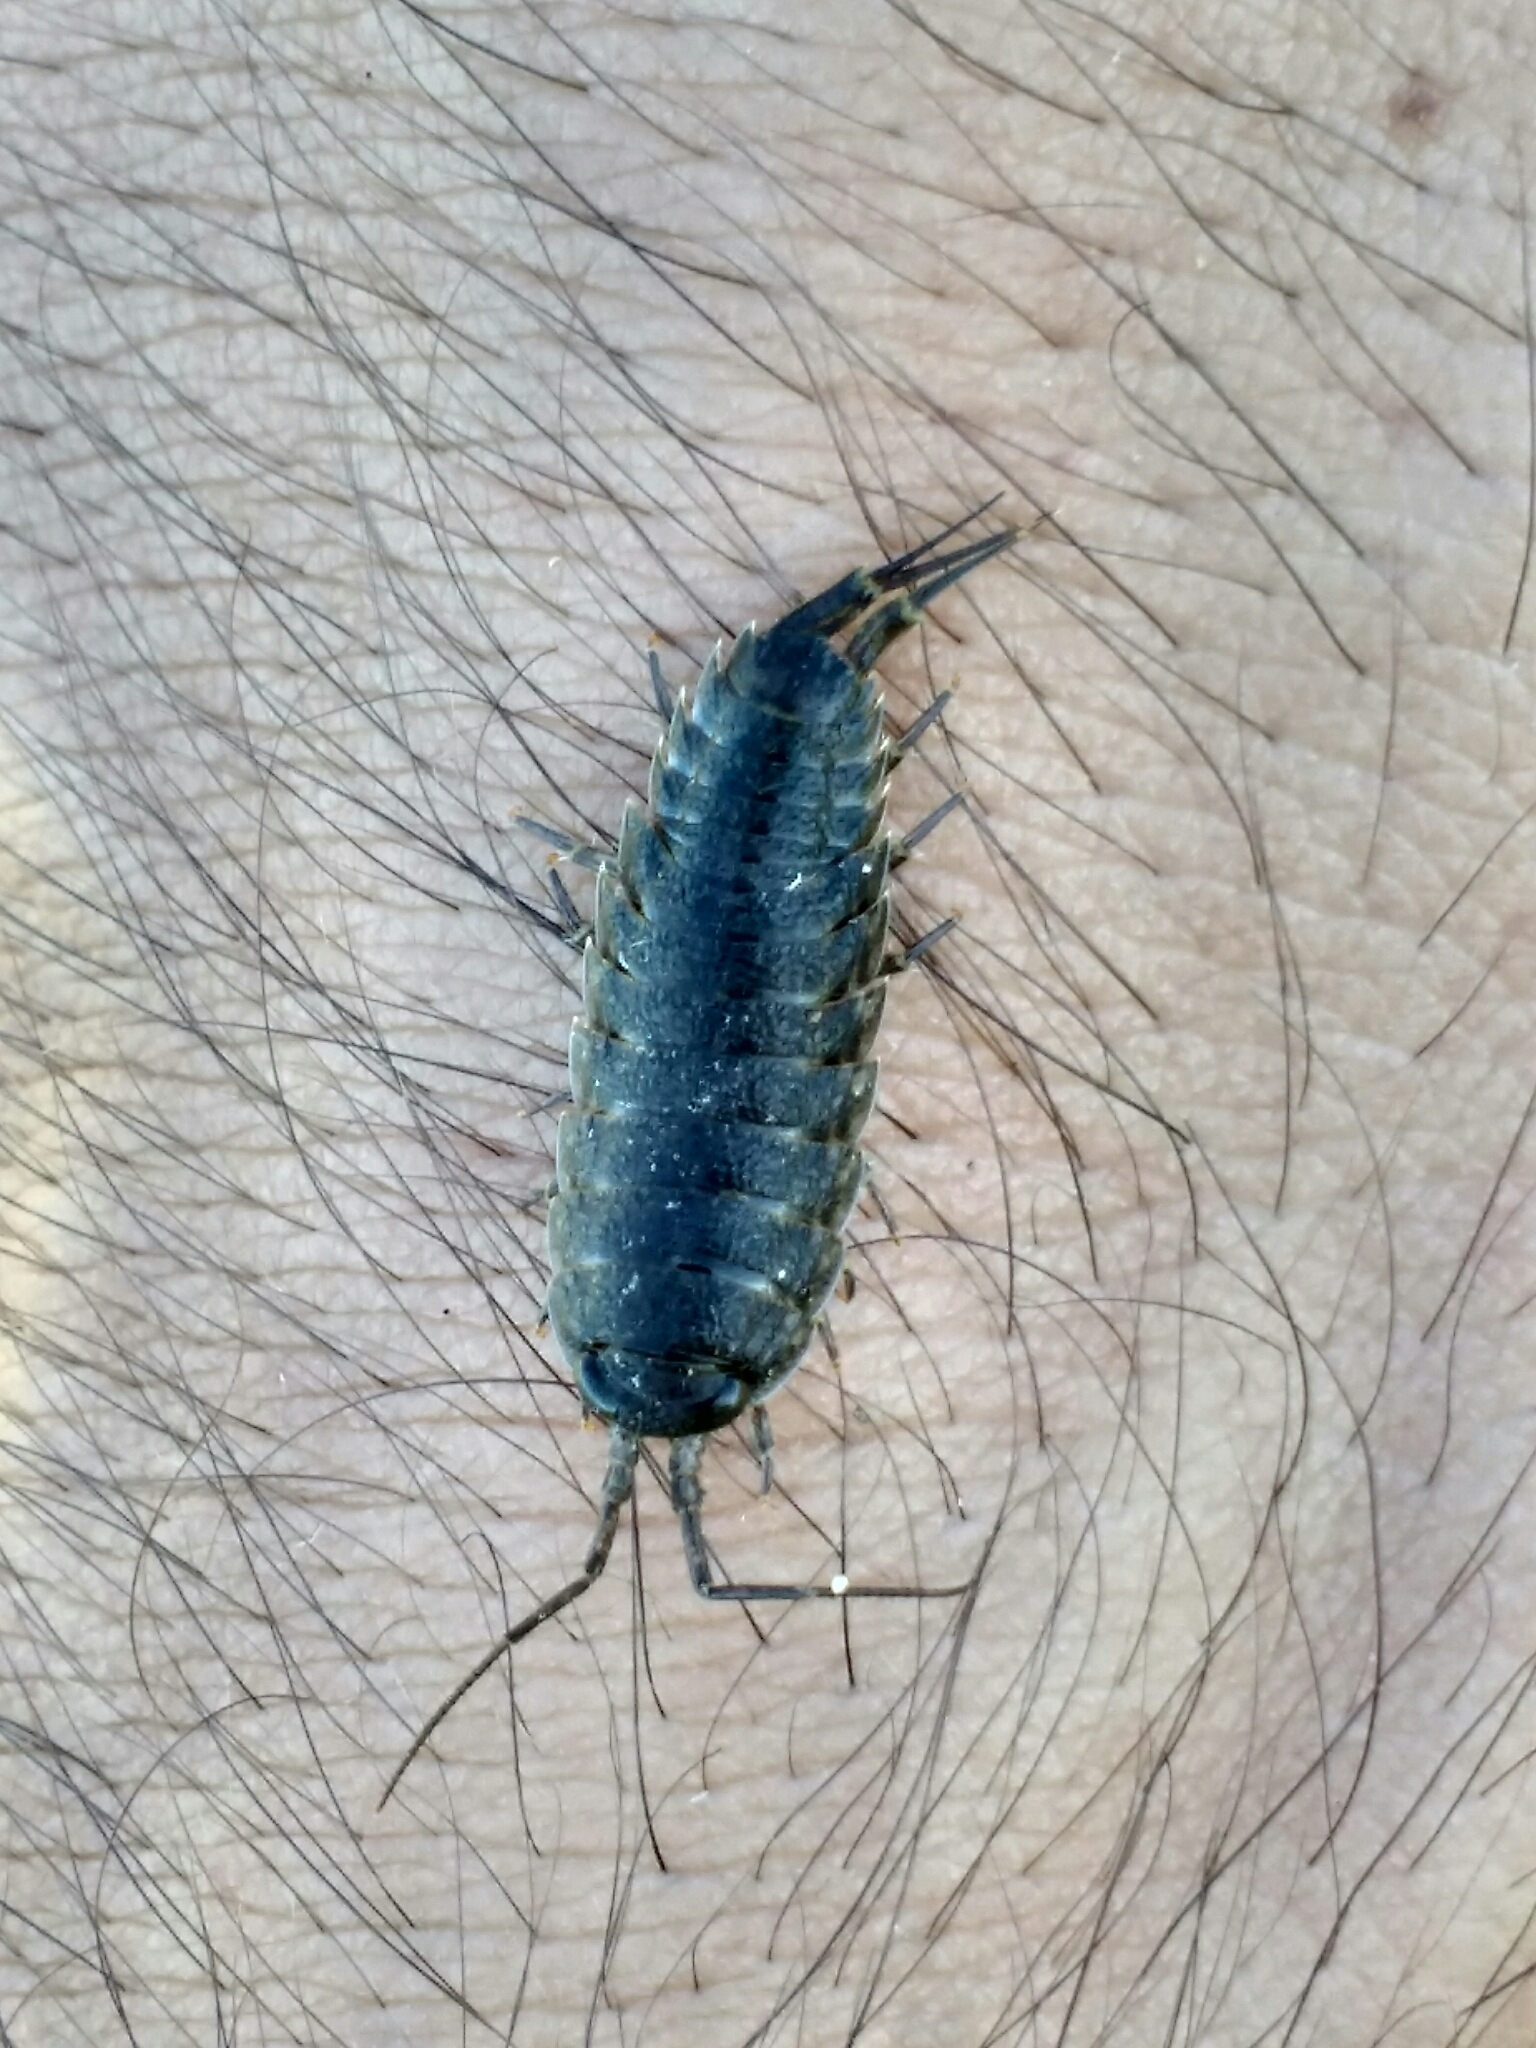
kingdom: Animalia
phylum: Arthropoda
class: Malacostraca
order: Isopoda
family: Ligiidae
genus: Ligia
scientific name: Ligia occidentalis
